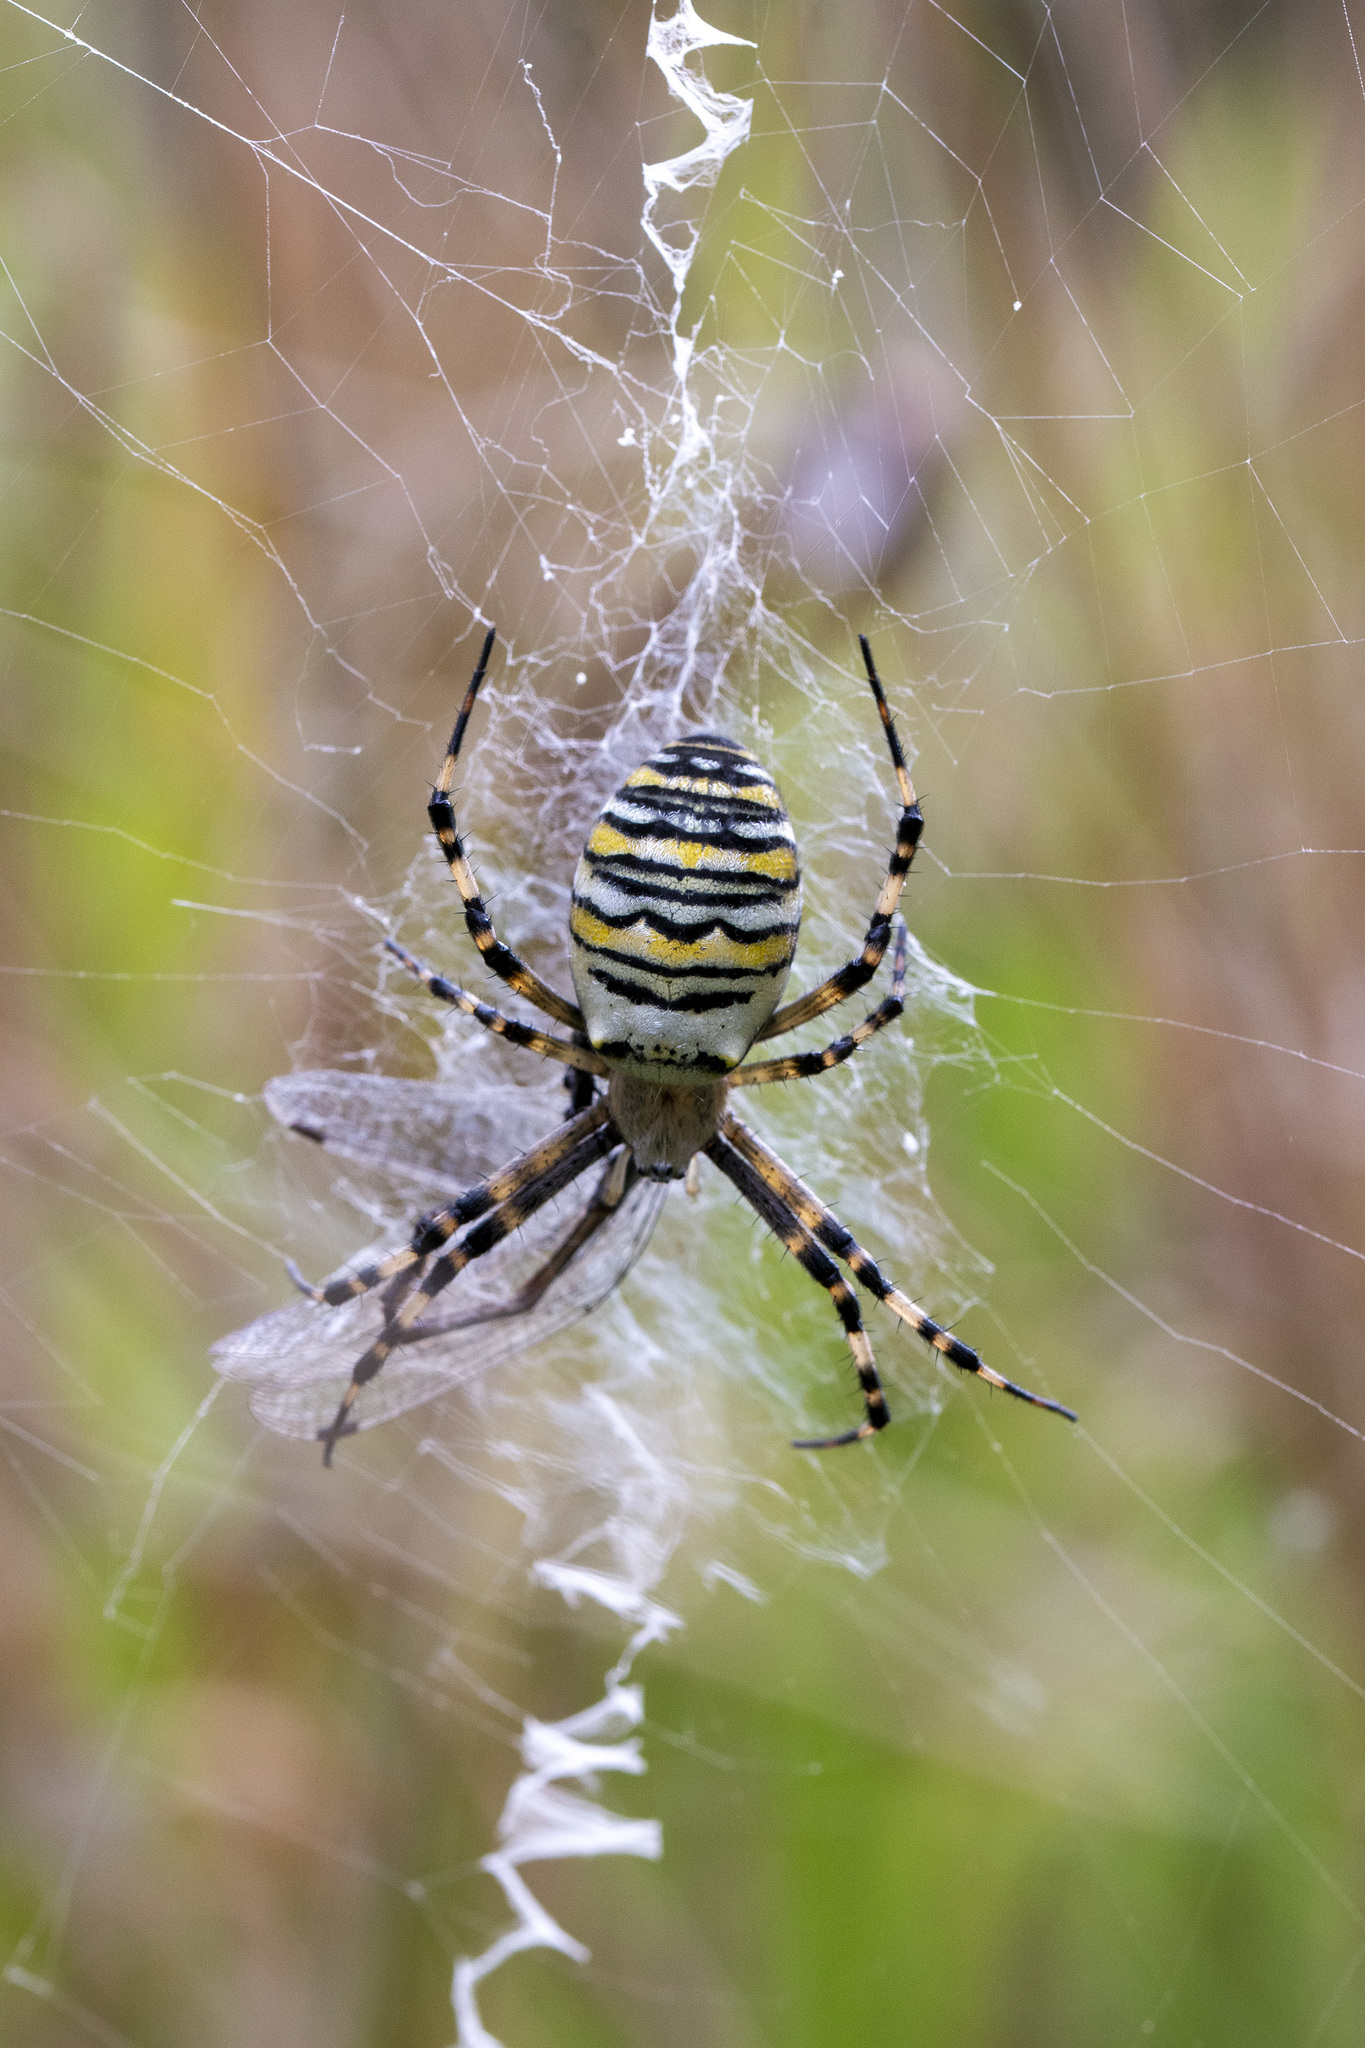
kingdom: Animalia
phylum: Arthropoda
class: Arachnida
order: Araneae
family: Araneidae
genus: Argiope
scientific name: Argiope bruennichi
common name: Wasp spider
